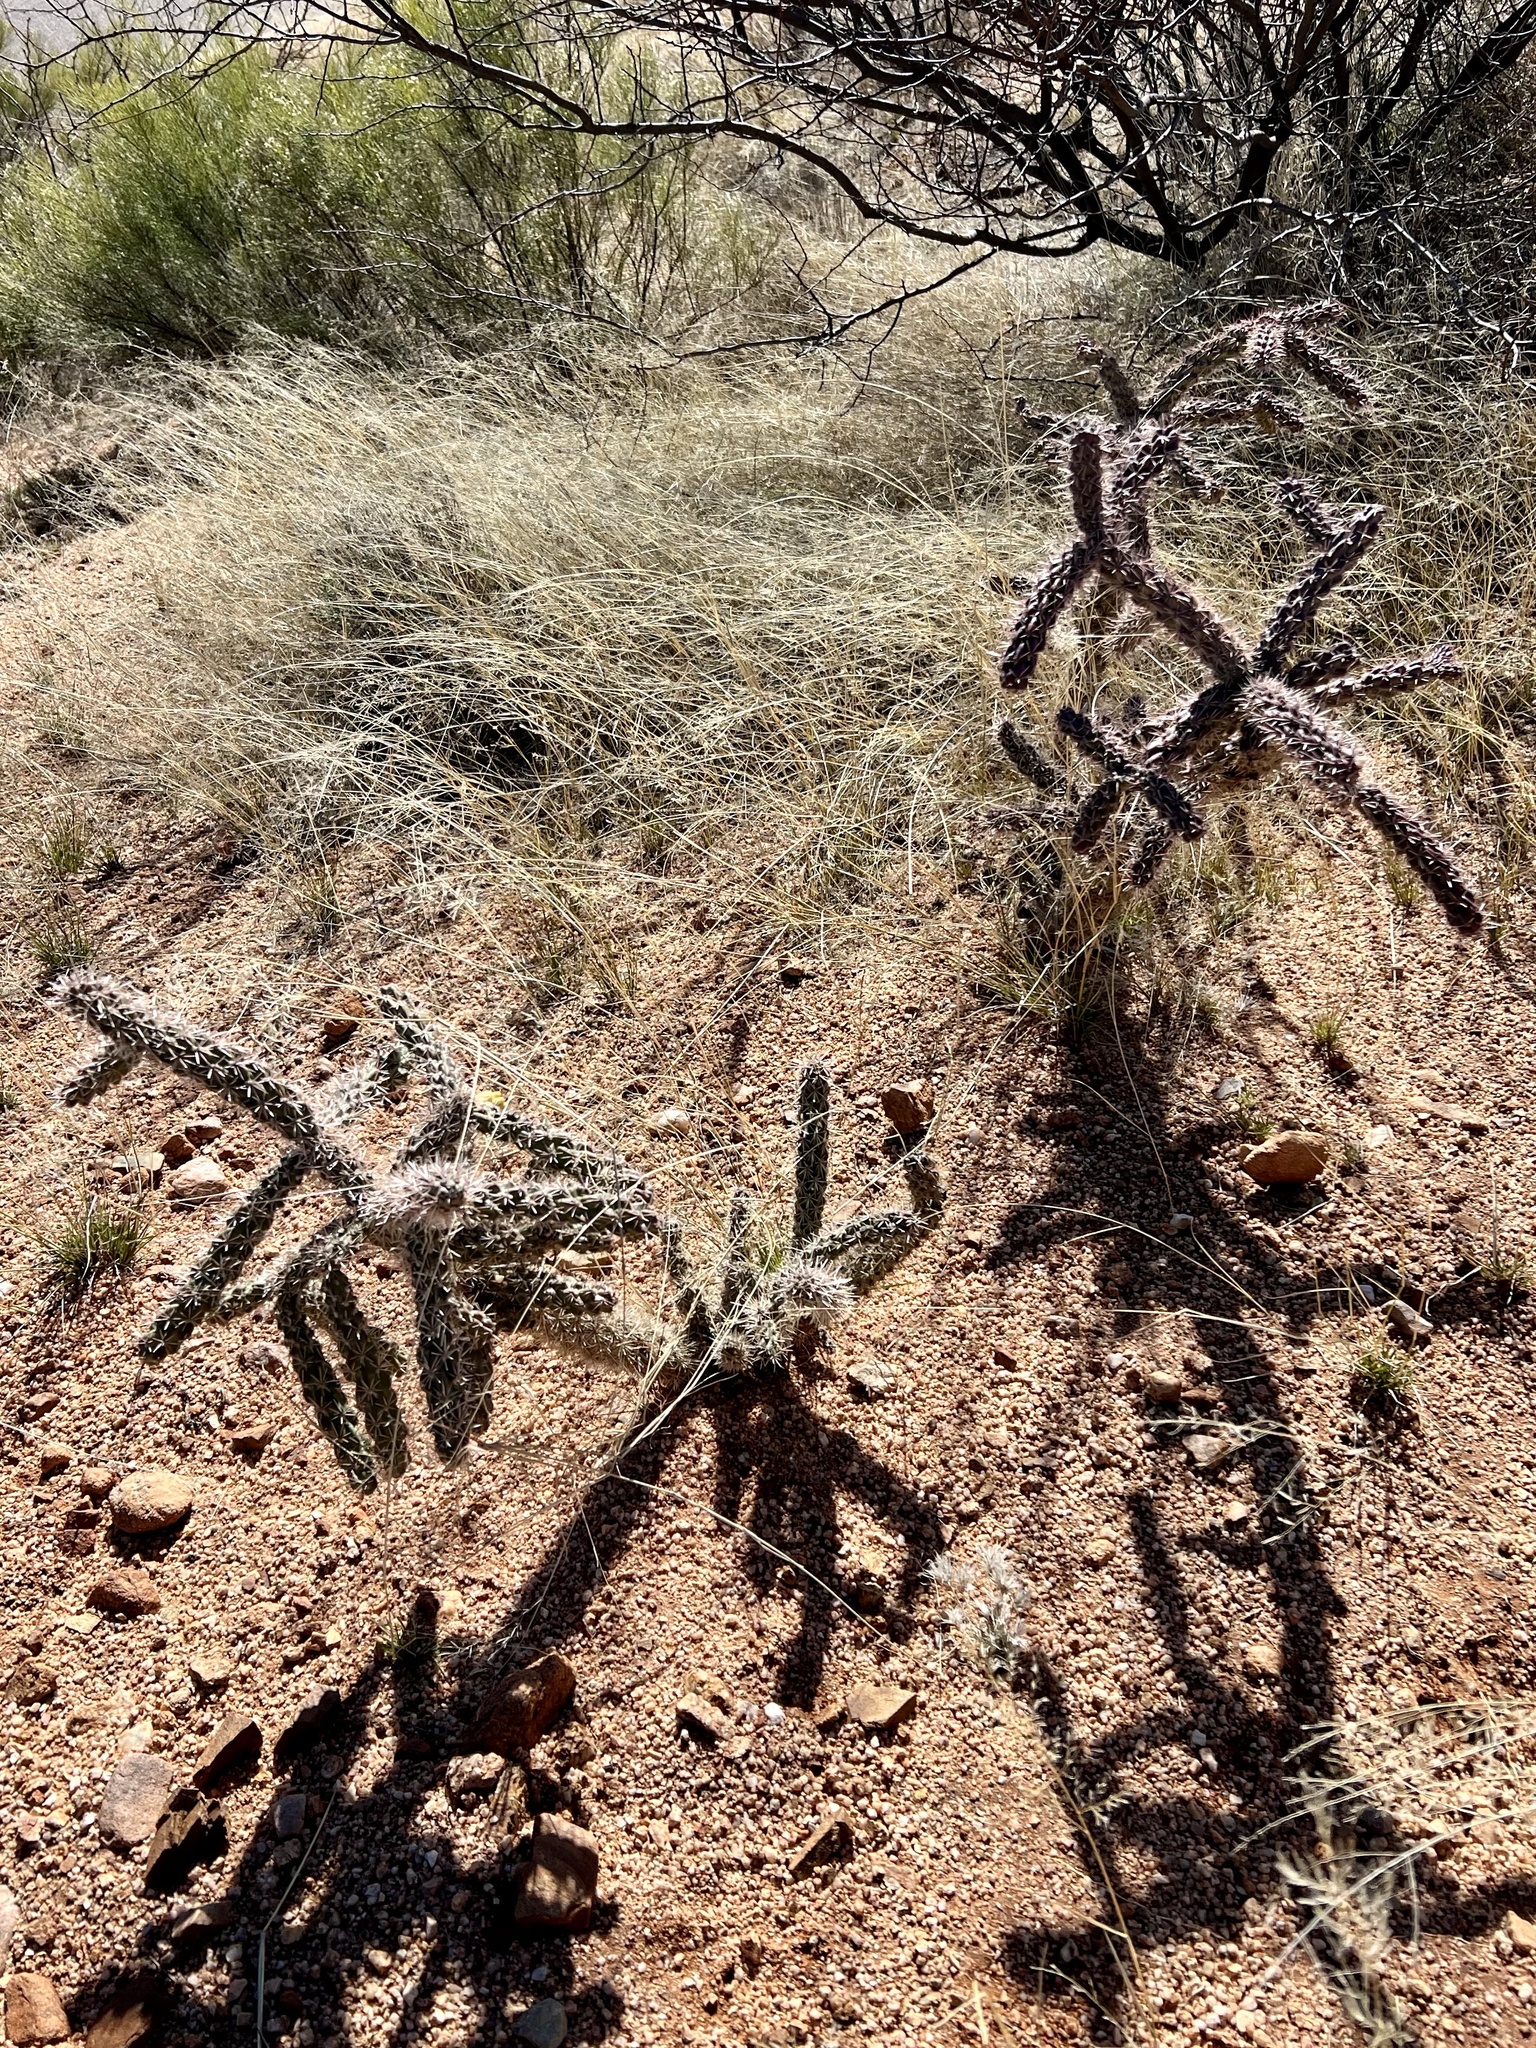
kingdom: Plantae
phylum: Tracheophyta
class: Magnoliopsida
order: Caryophyllales
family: Cactaceae
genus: Cylindropuntia
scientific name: Cylindropuntia imbricata
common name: Candelabrum cactus
